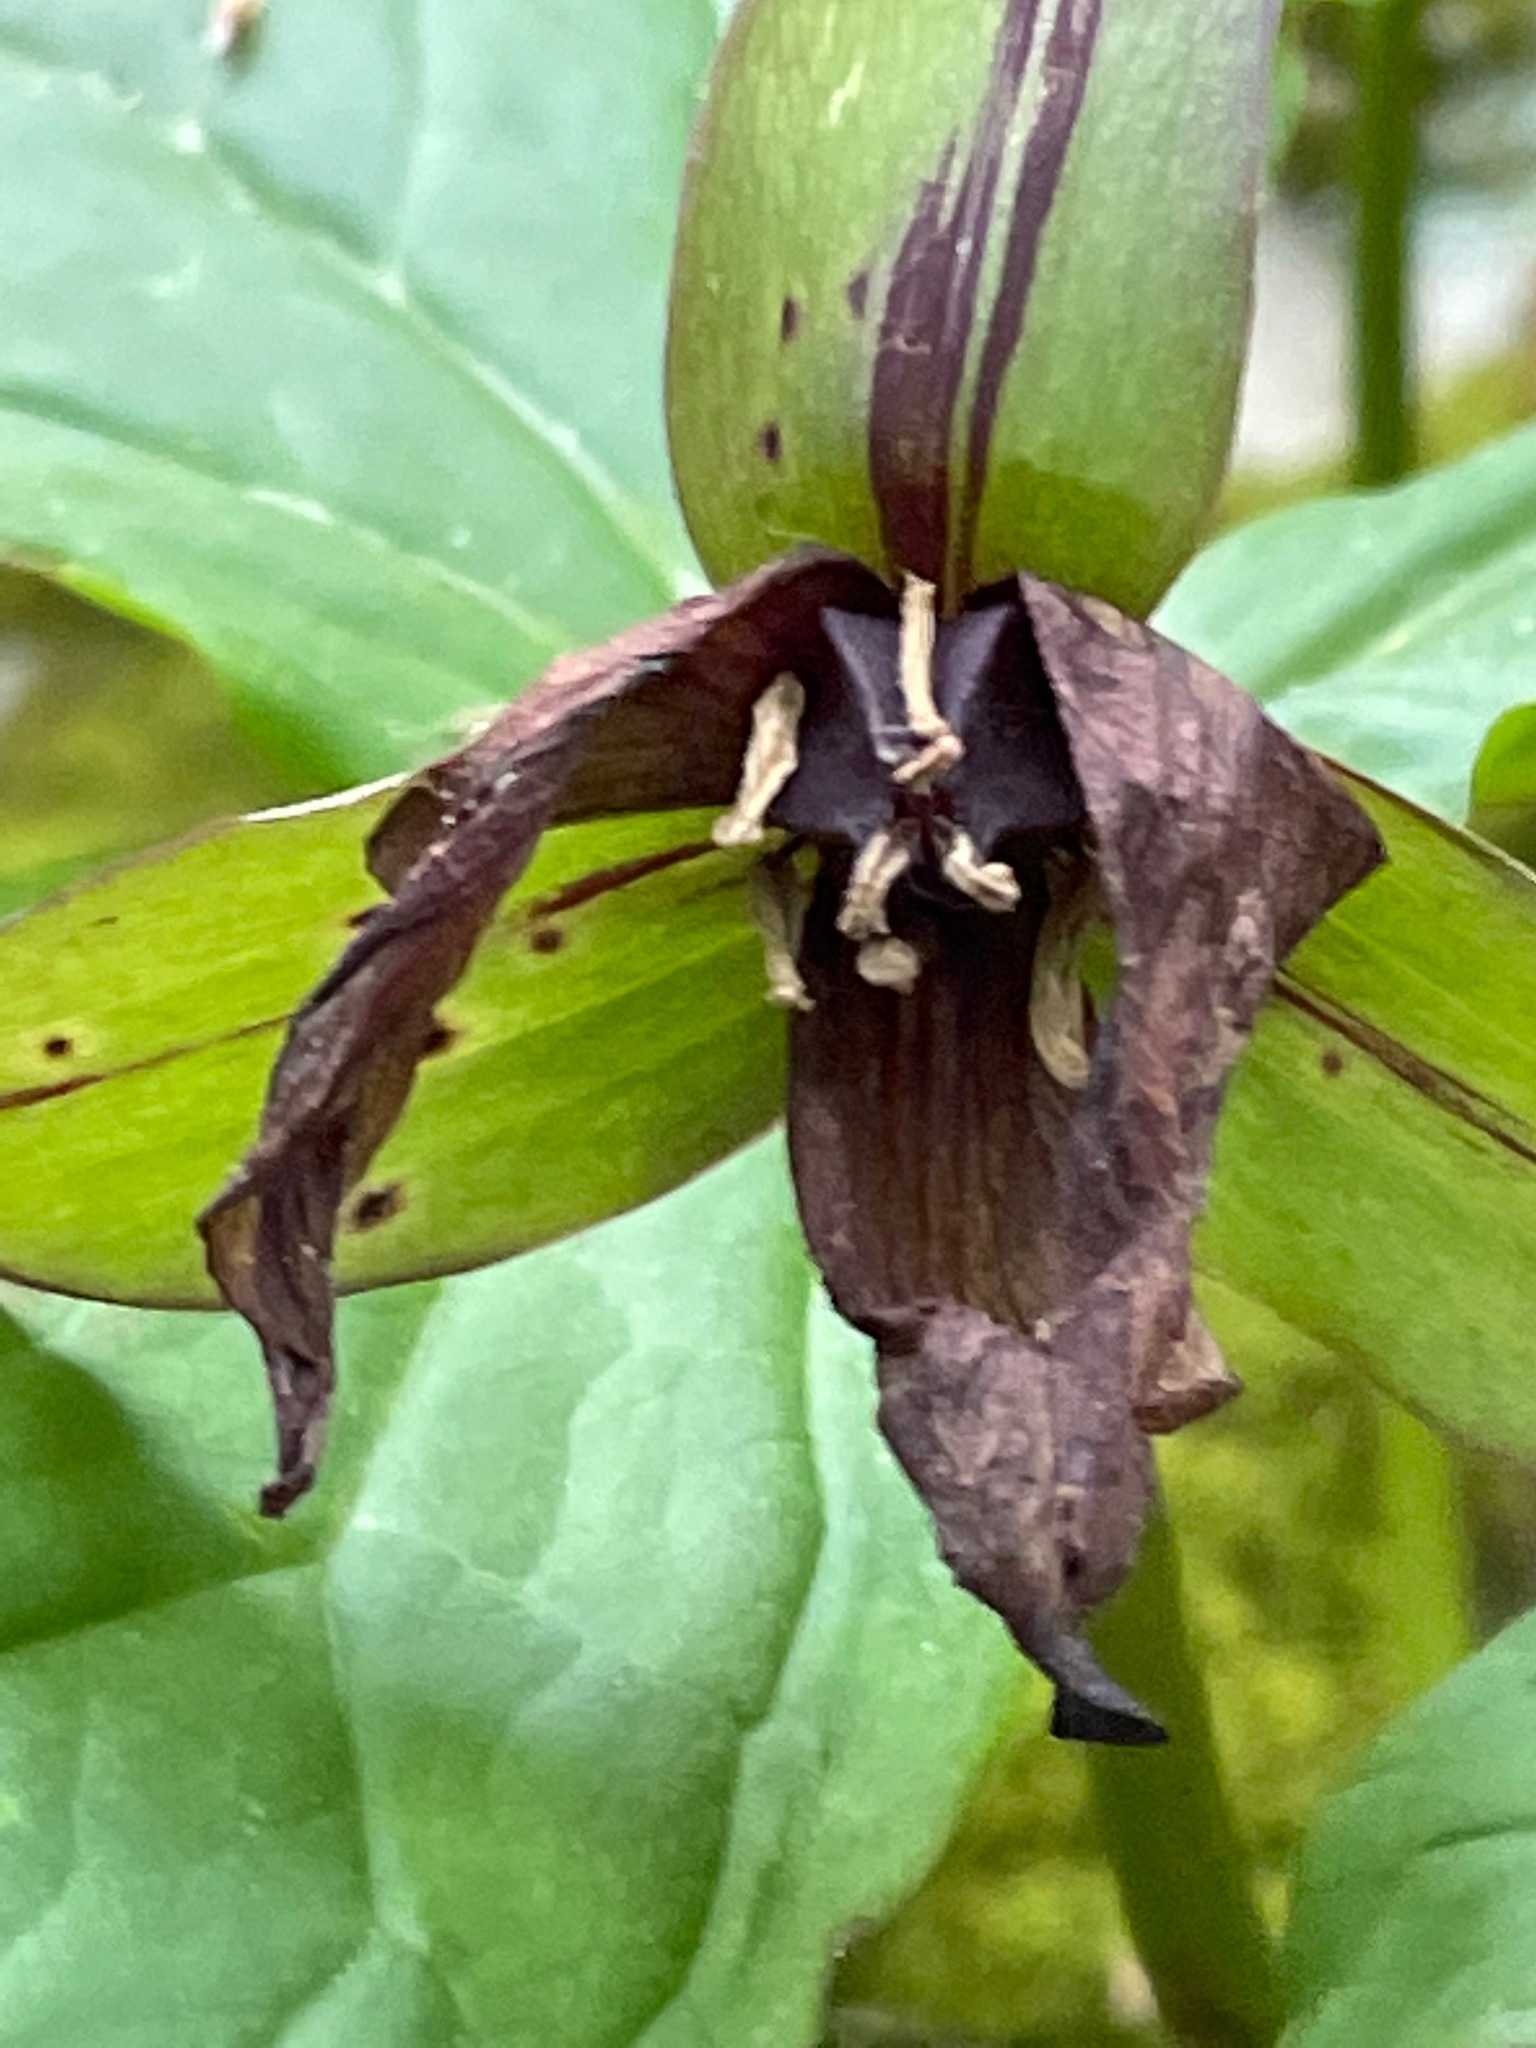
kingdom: Plantae
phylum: Tracheophyta
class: Liliopsida
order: Liliales
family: Melanthiaceae
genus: Trillium
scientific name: Trillium erectum
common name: Purple trillium
